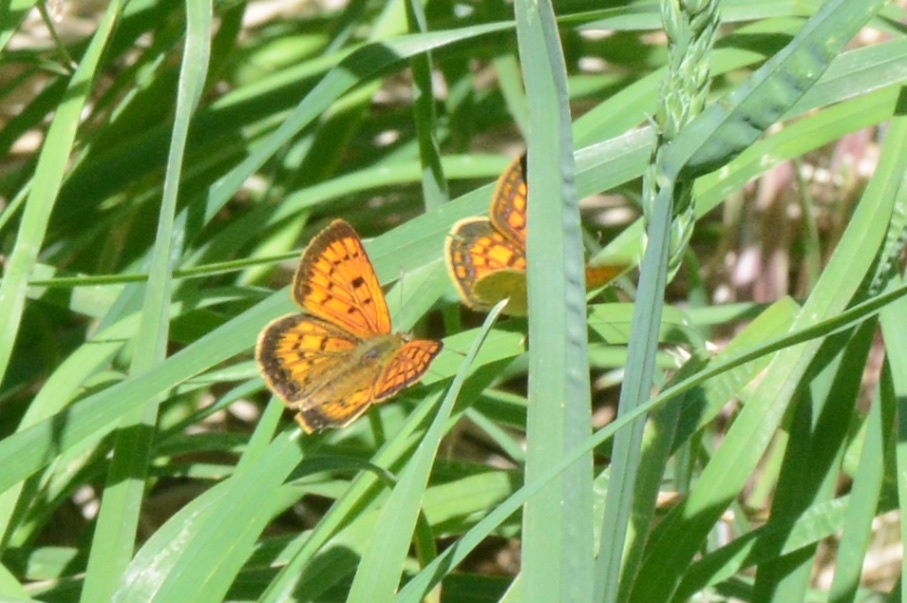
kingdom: Animalia
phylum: Arthropoda
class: Insecta
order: Lepidoptera
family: Lycaenidae
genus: Lycaena
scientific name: Lycaena
